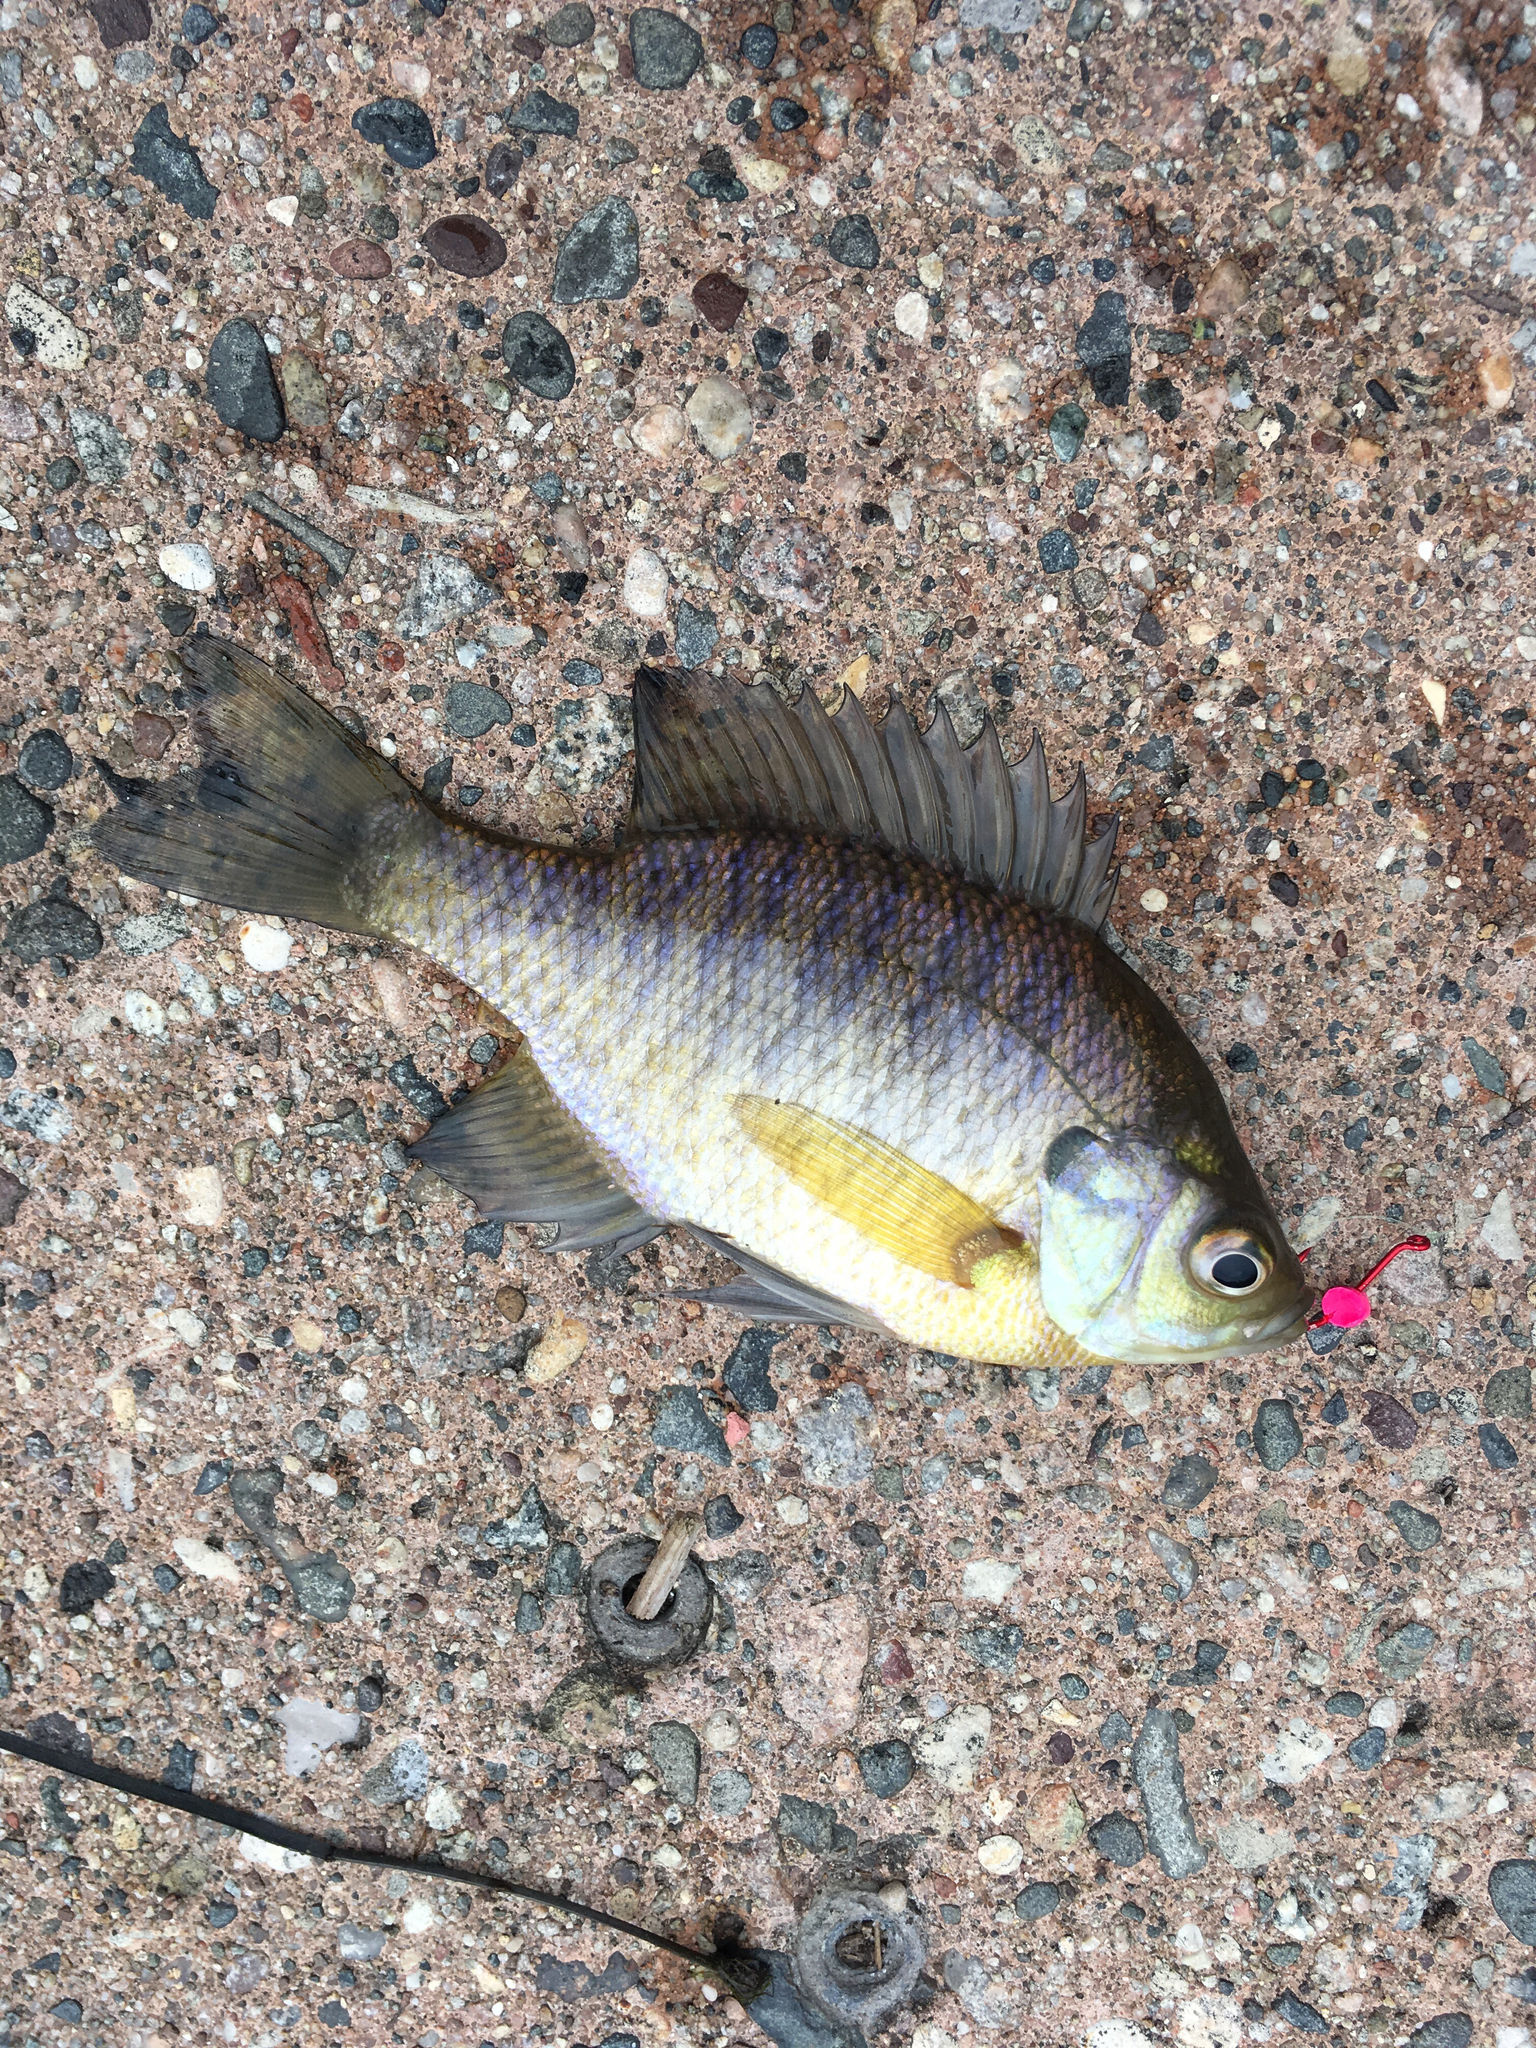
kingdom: Animalia
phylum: Chordata
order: Perciformes
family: Centrarchidae
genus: Lepomis
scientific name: Lepomis macrochirus
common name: Bluegill
